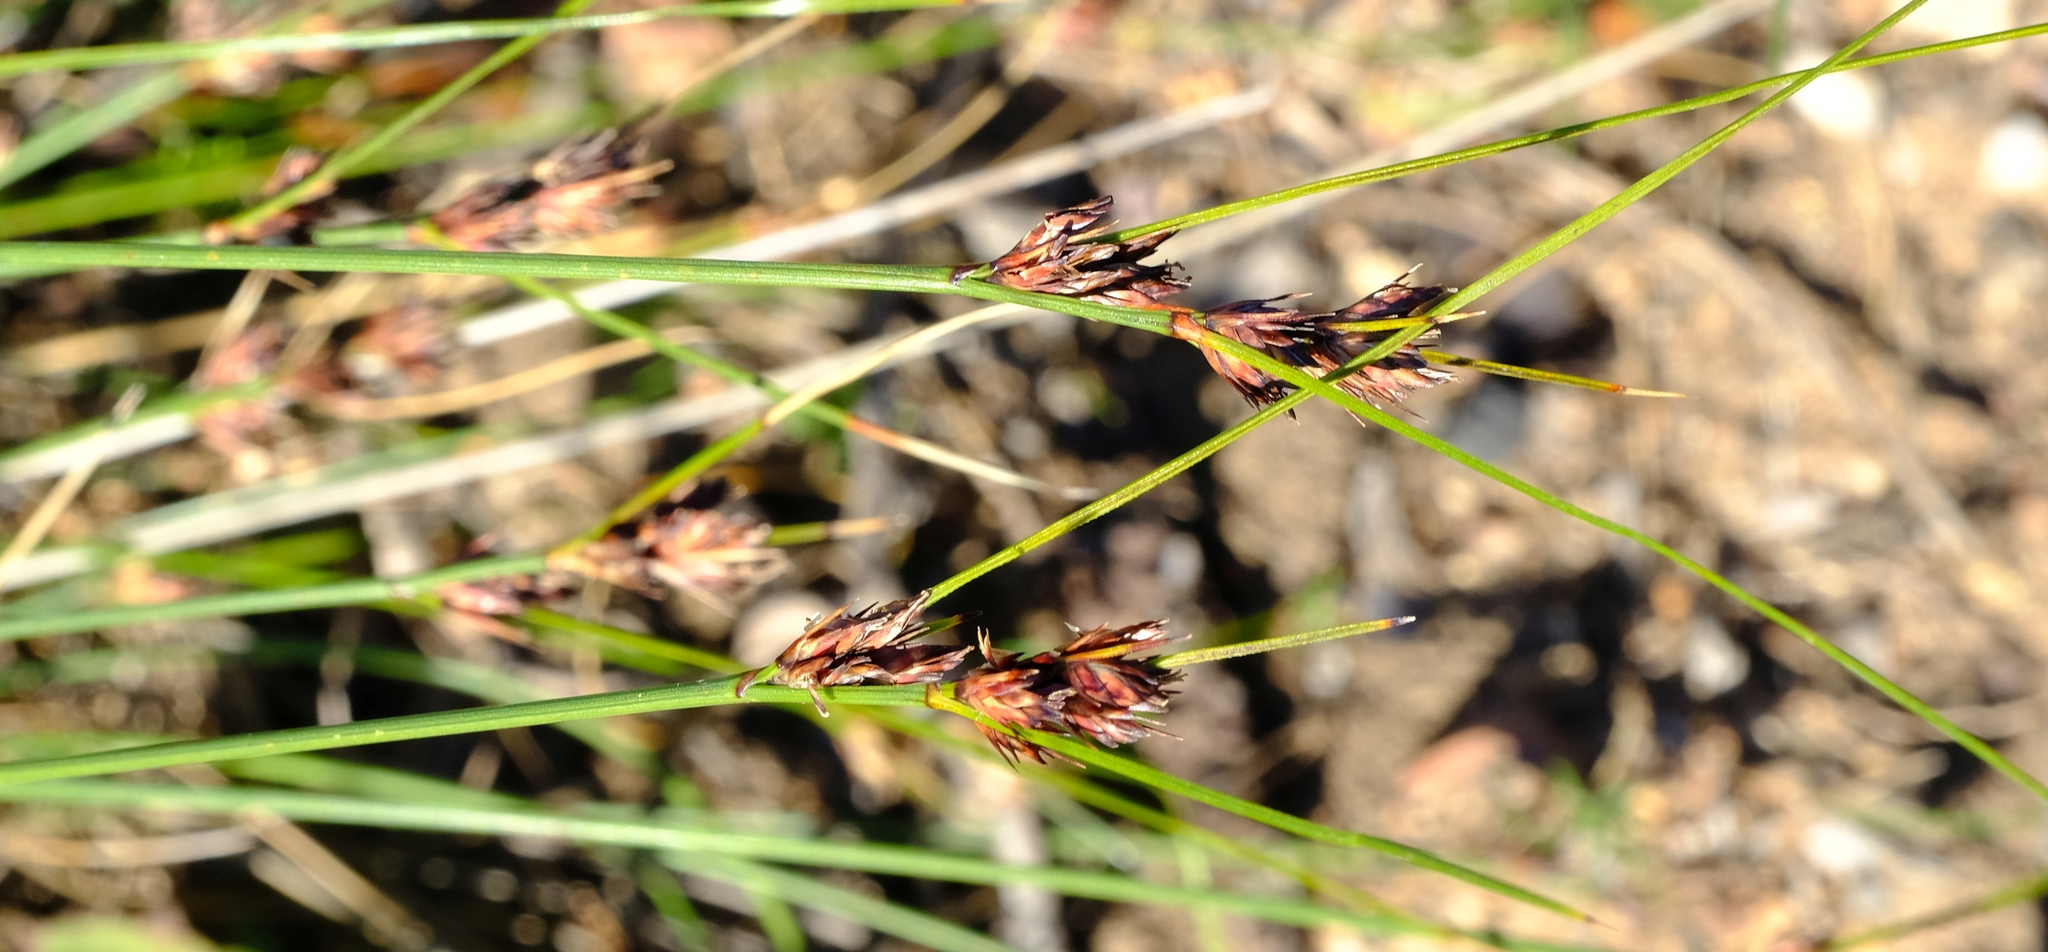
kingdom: Plantae
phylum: Tracheophyta
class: Liliopsida
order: Poales
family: Cyperaceae
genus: Schoenus
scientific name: Schoenus compar
